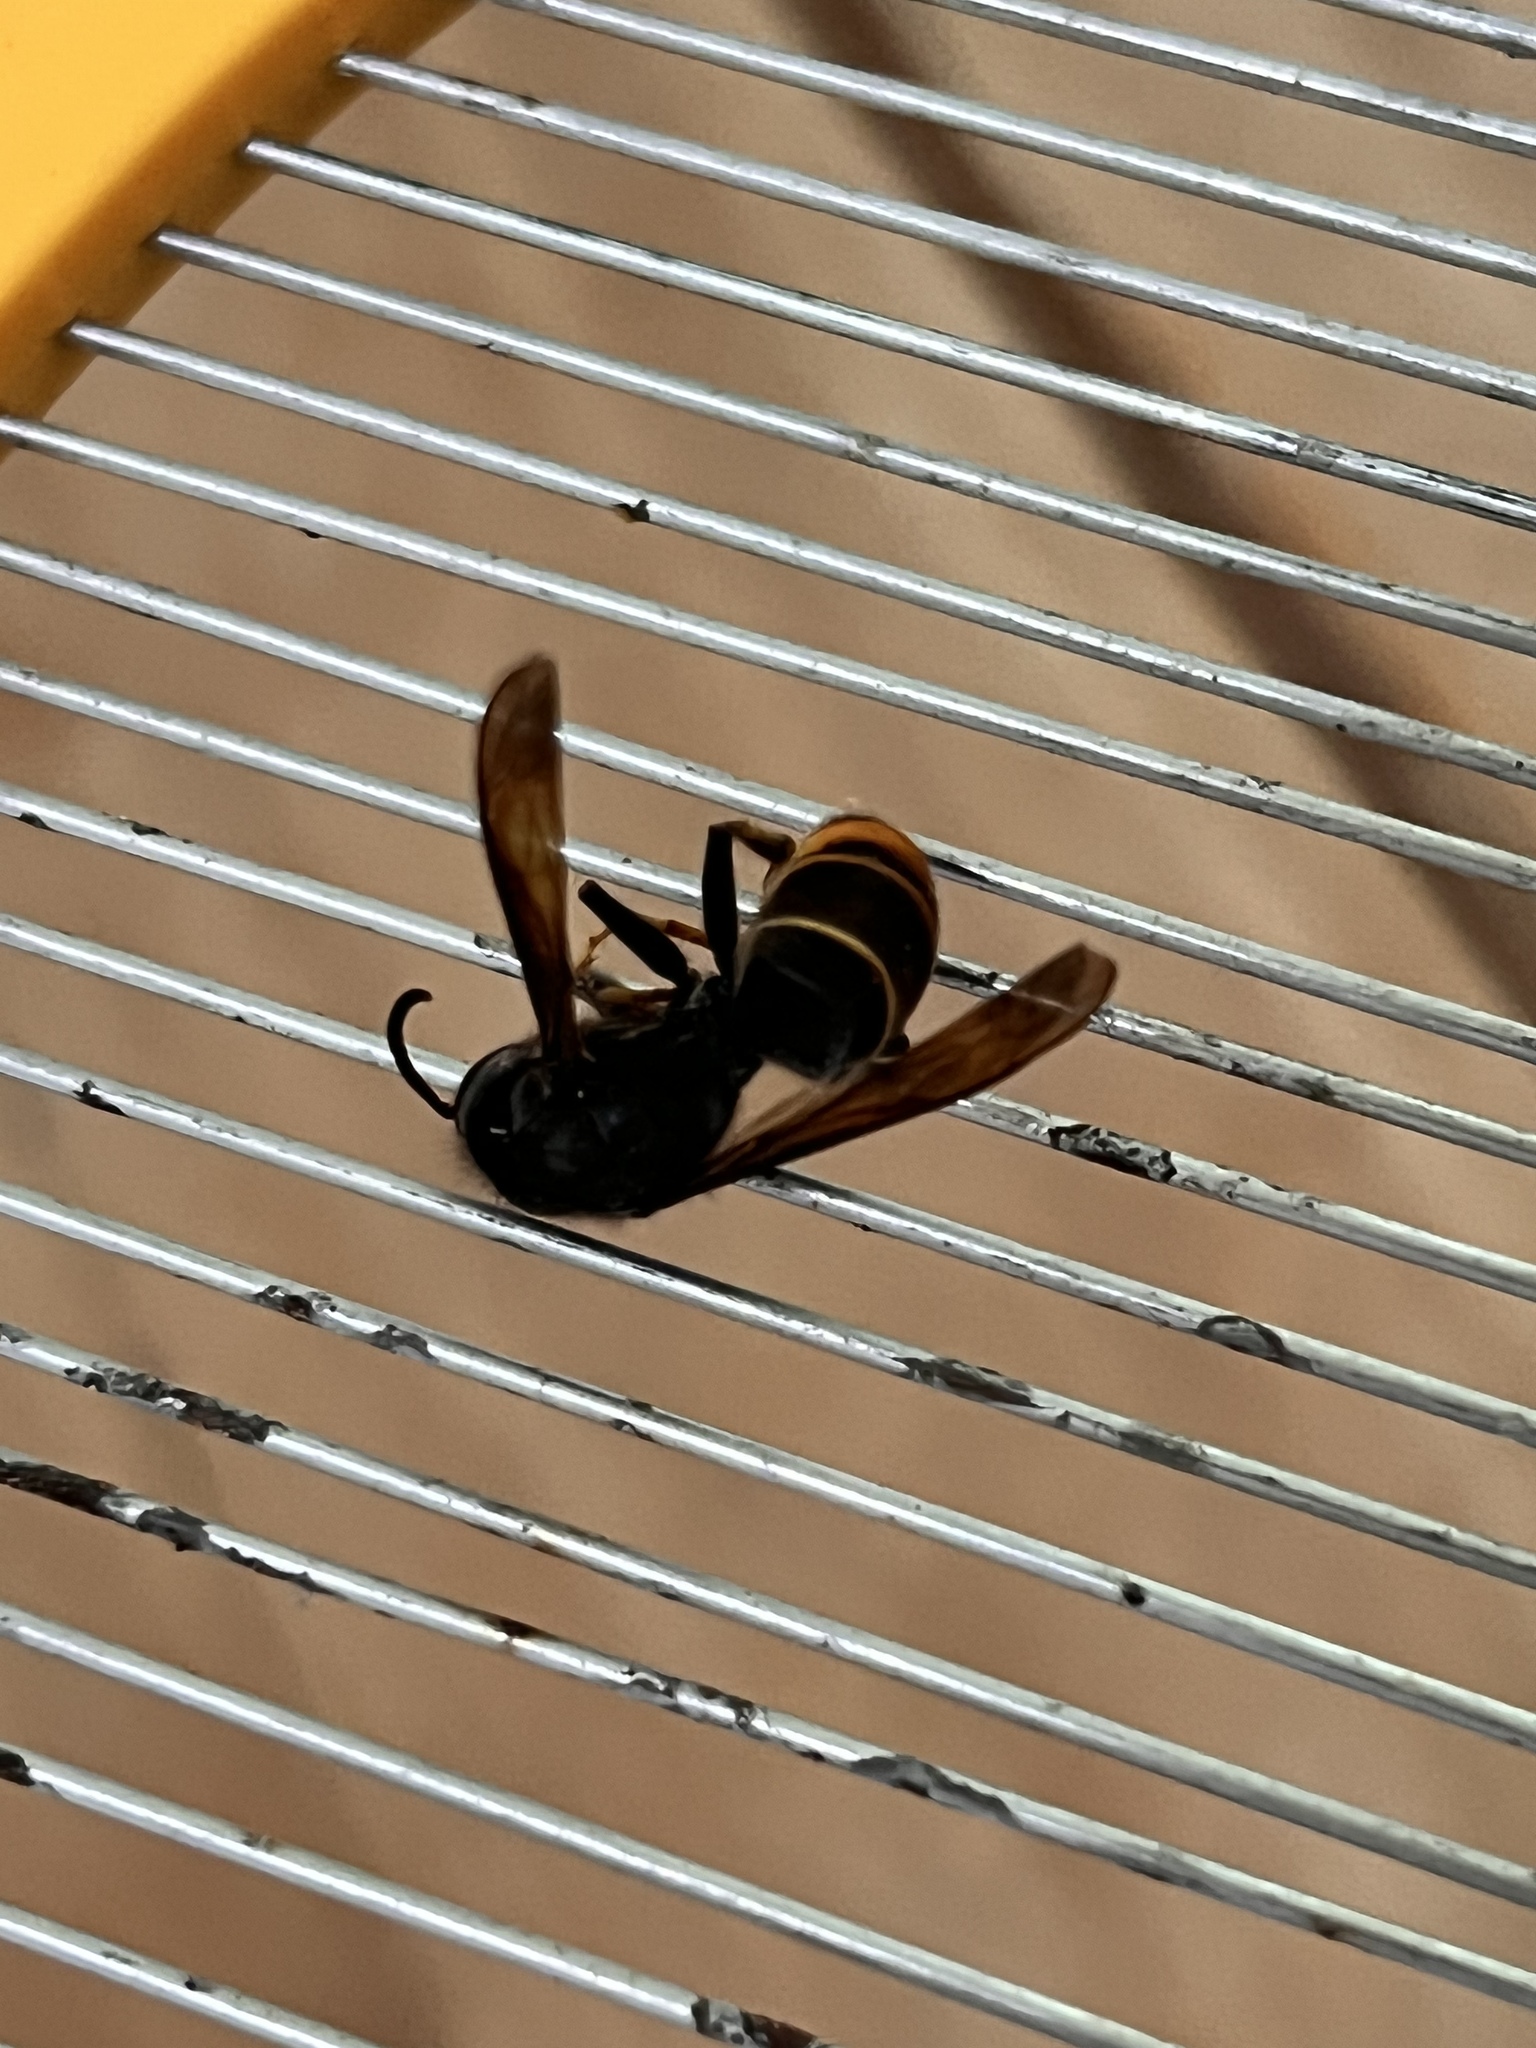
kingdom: Animalia
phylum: Arthropoda
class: Insecta
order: Hymenoptera
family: Vespidae
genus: Vespa
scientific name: Vespa velutina
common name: Asian hornet
